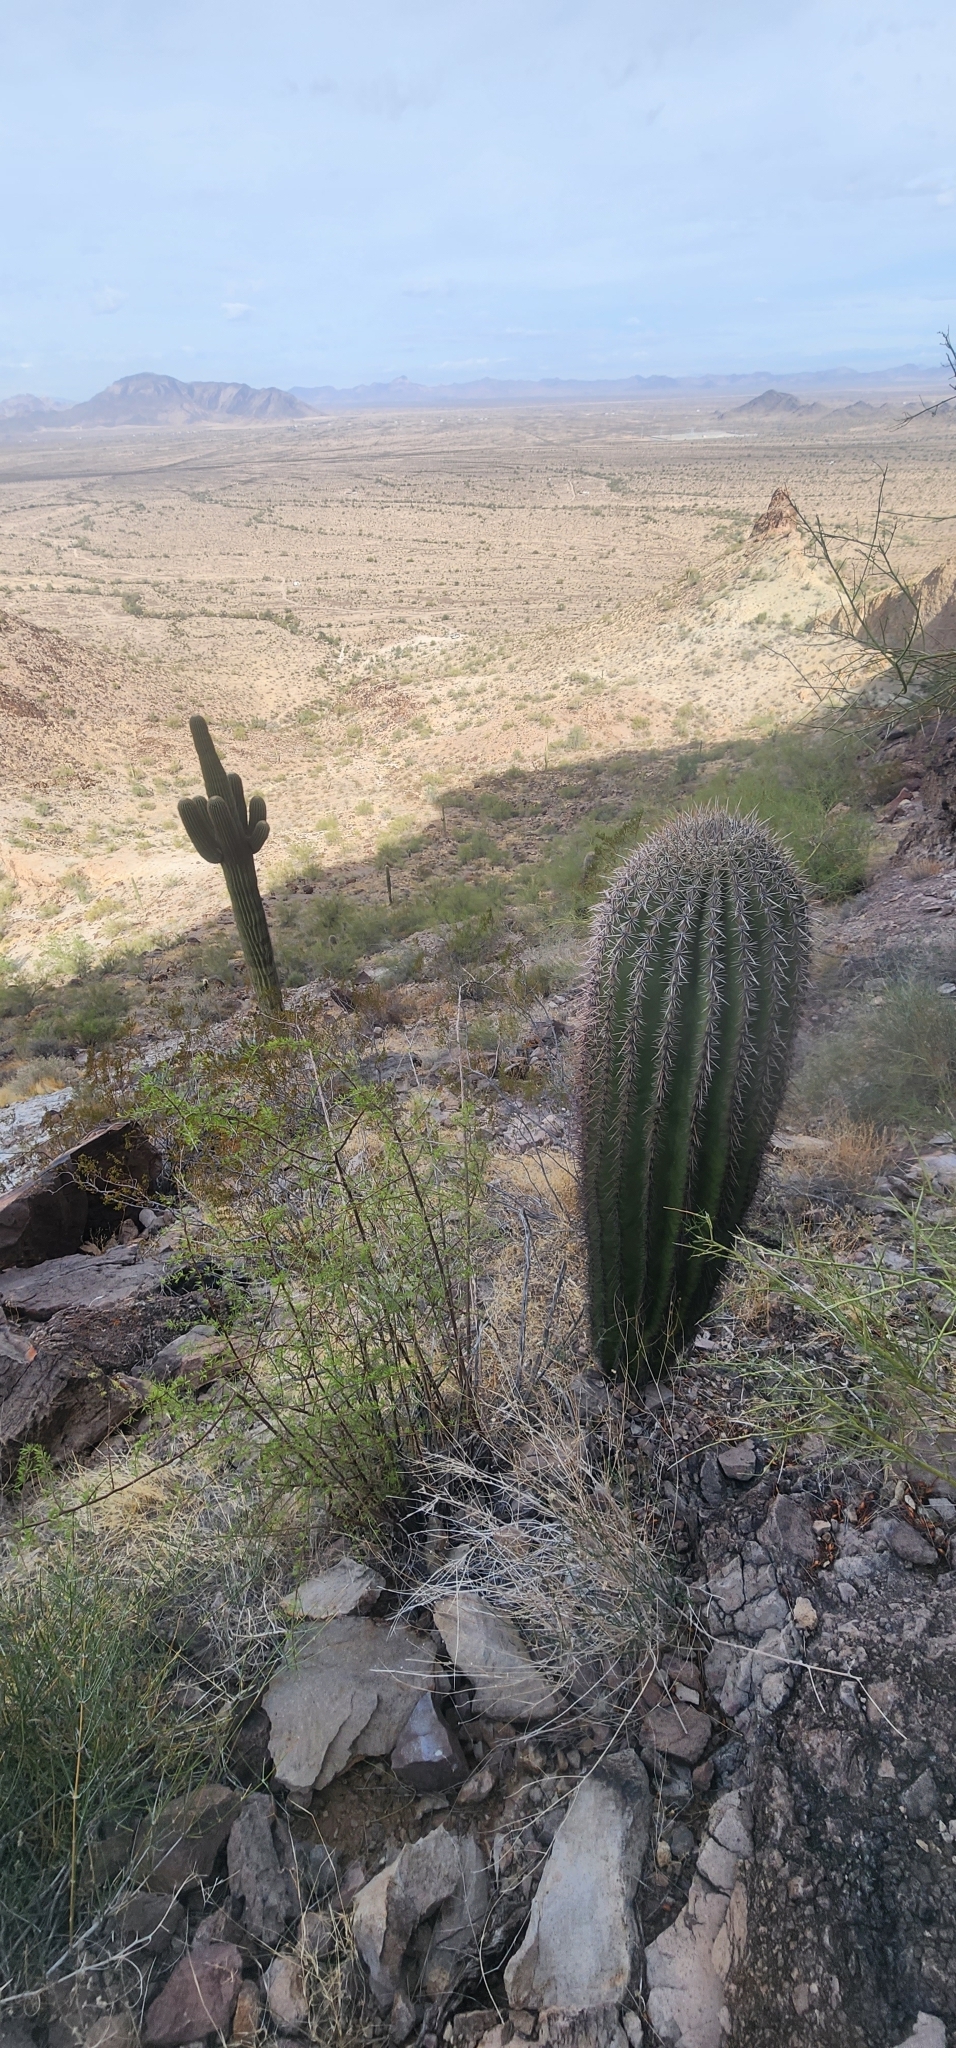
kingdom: Plantae
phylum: Tracheophyta
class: Magnoliopsida
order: Caryophyllales
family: Cactaceae
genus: Carnegiea
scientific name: Carnegiea gigantea
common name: Saguaro
